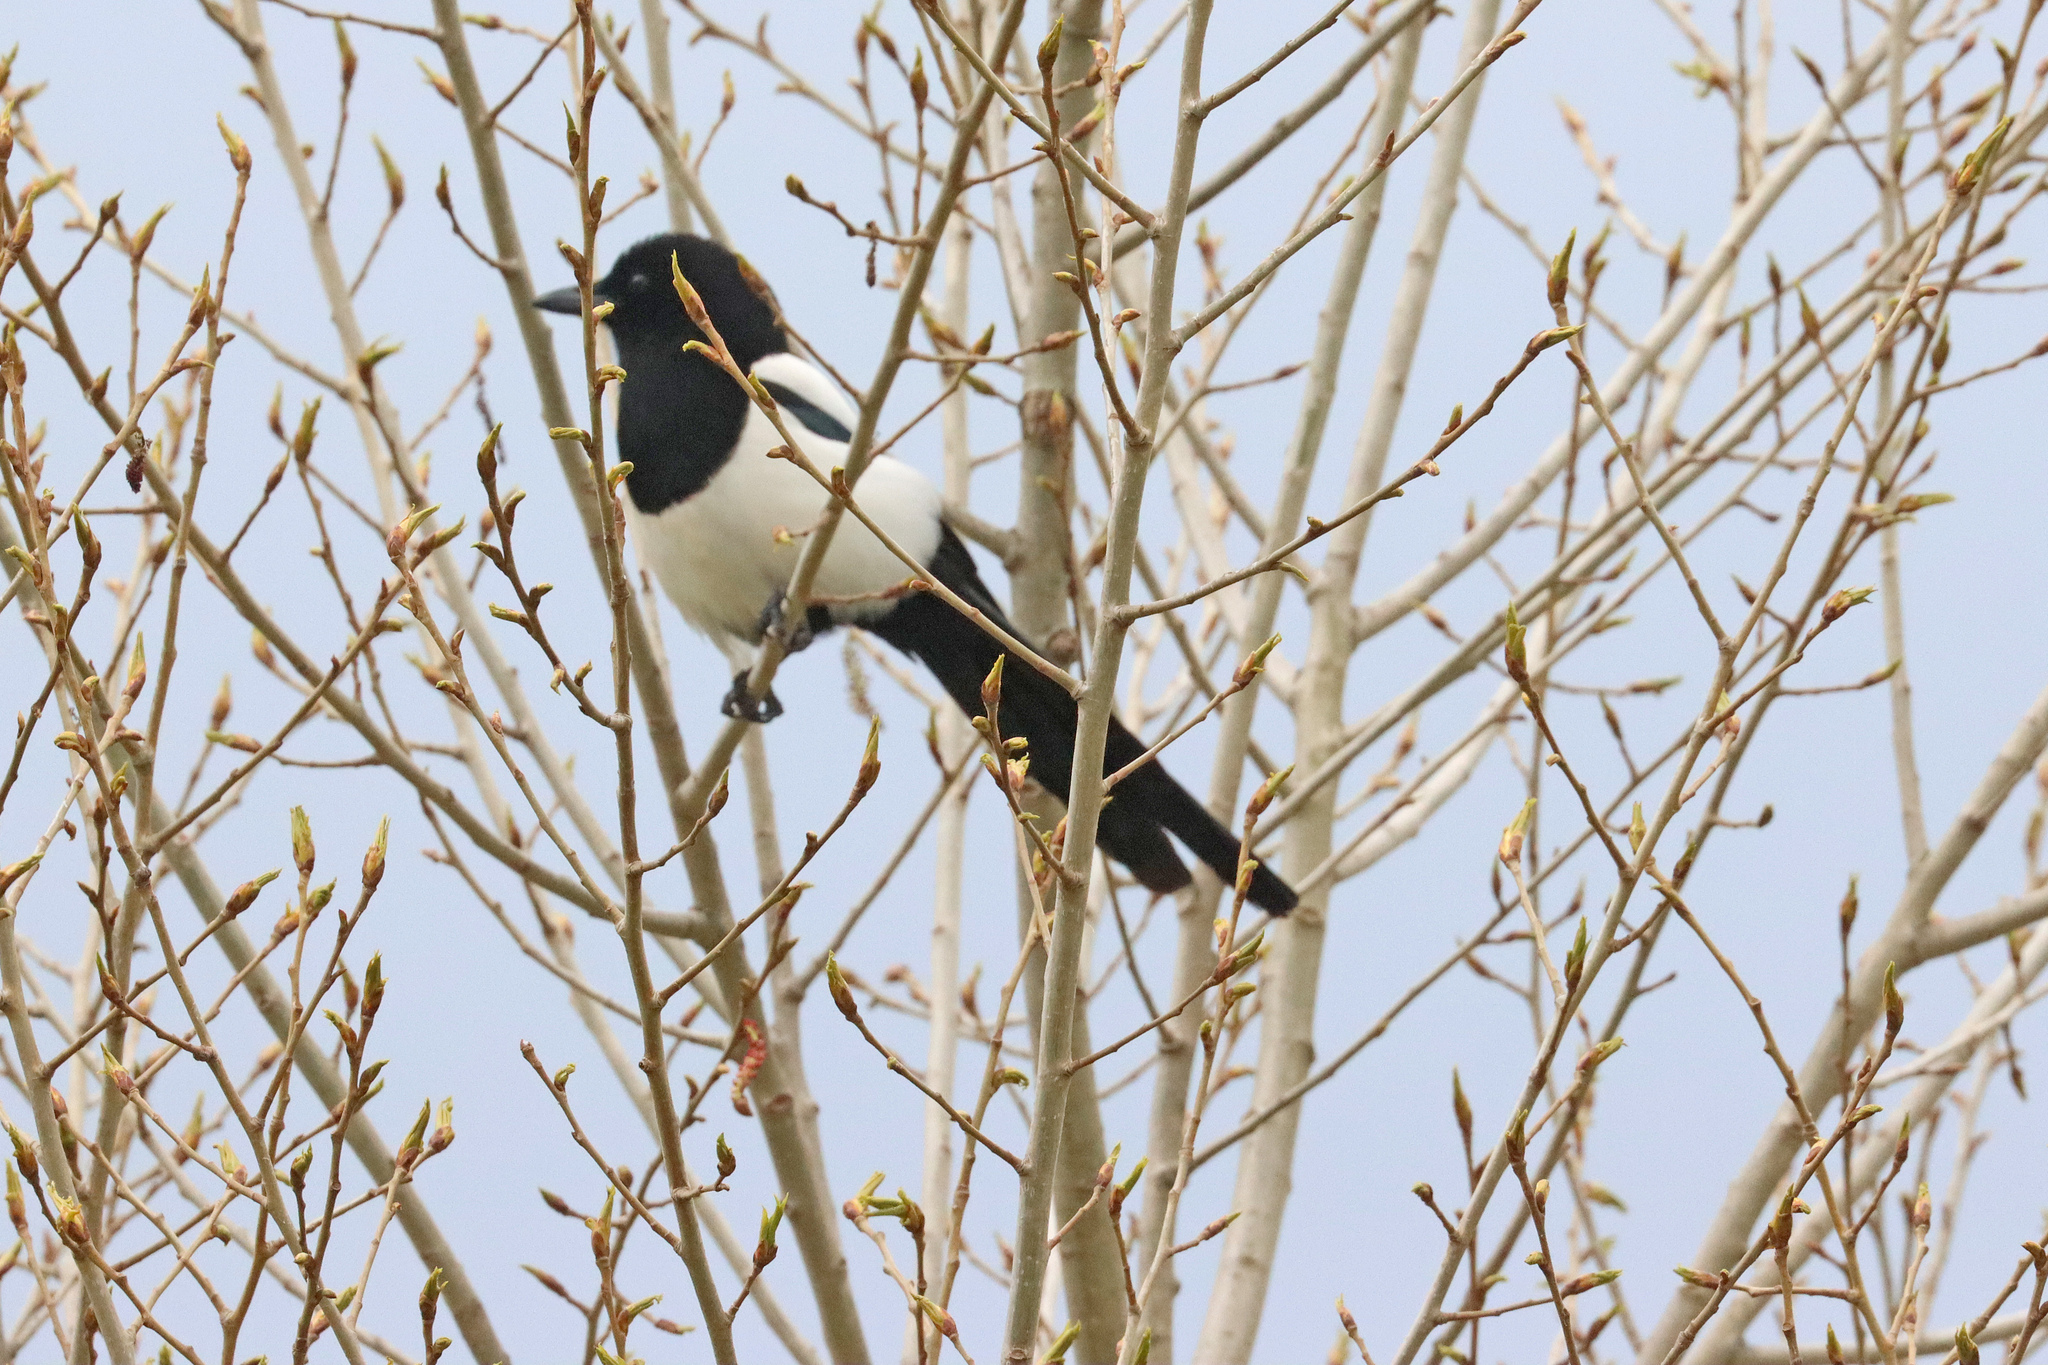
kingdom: Animalia
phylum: Chordata
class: Aves
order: Passeriformes
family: Corvidae
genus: Pica
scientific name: Pica pica
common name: Eurasian magpie
